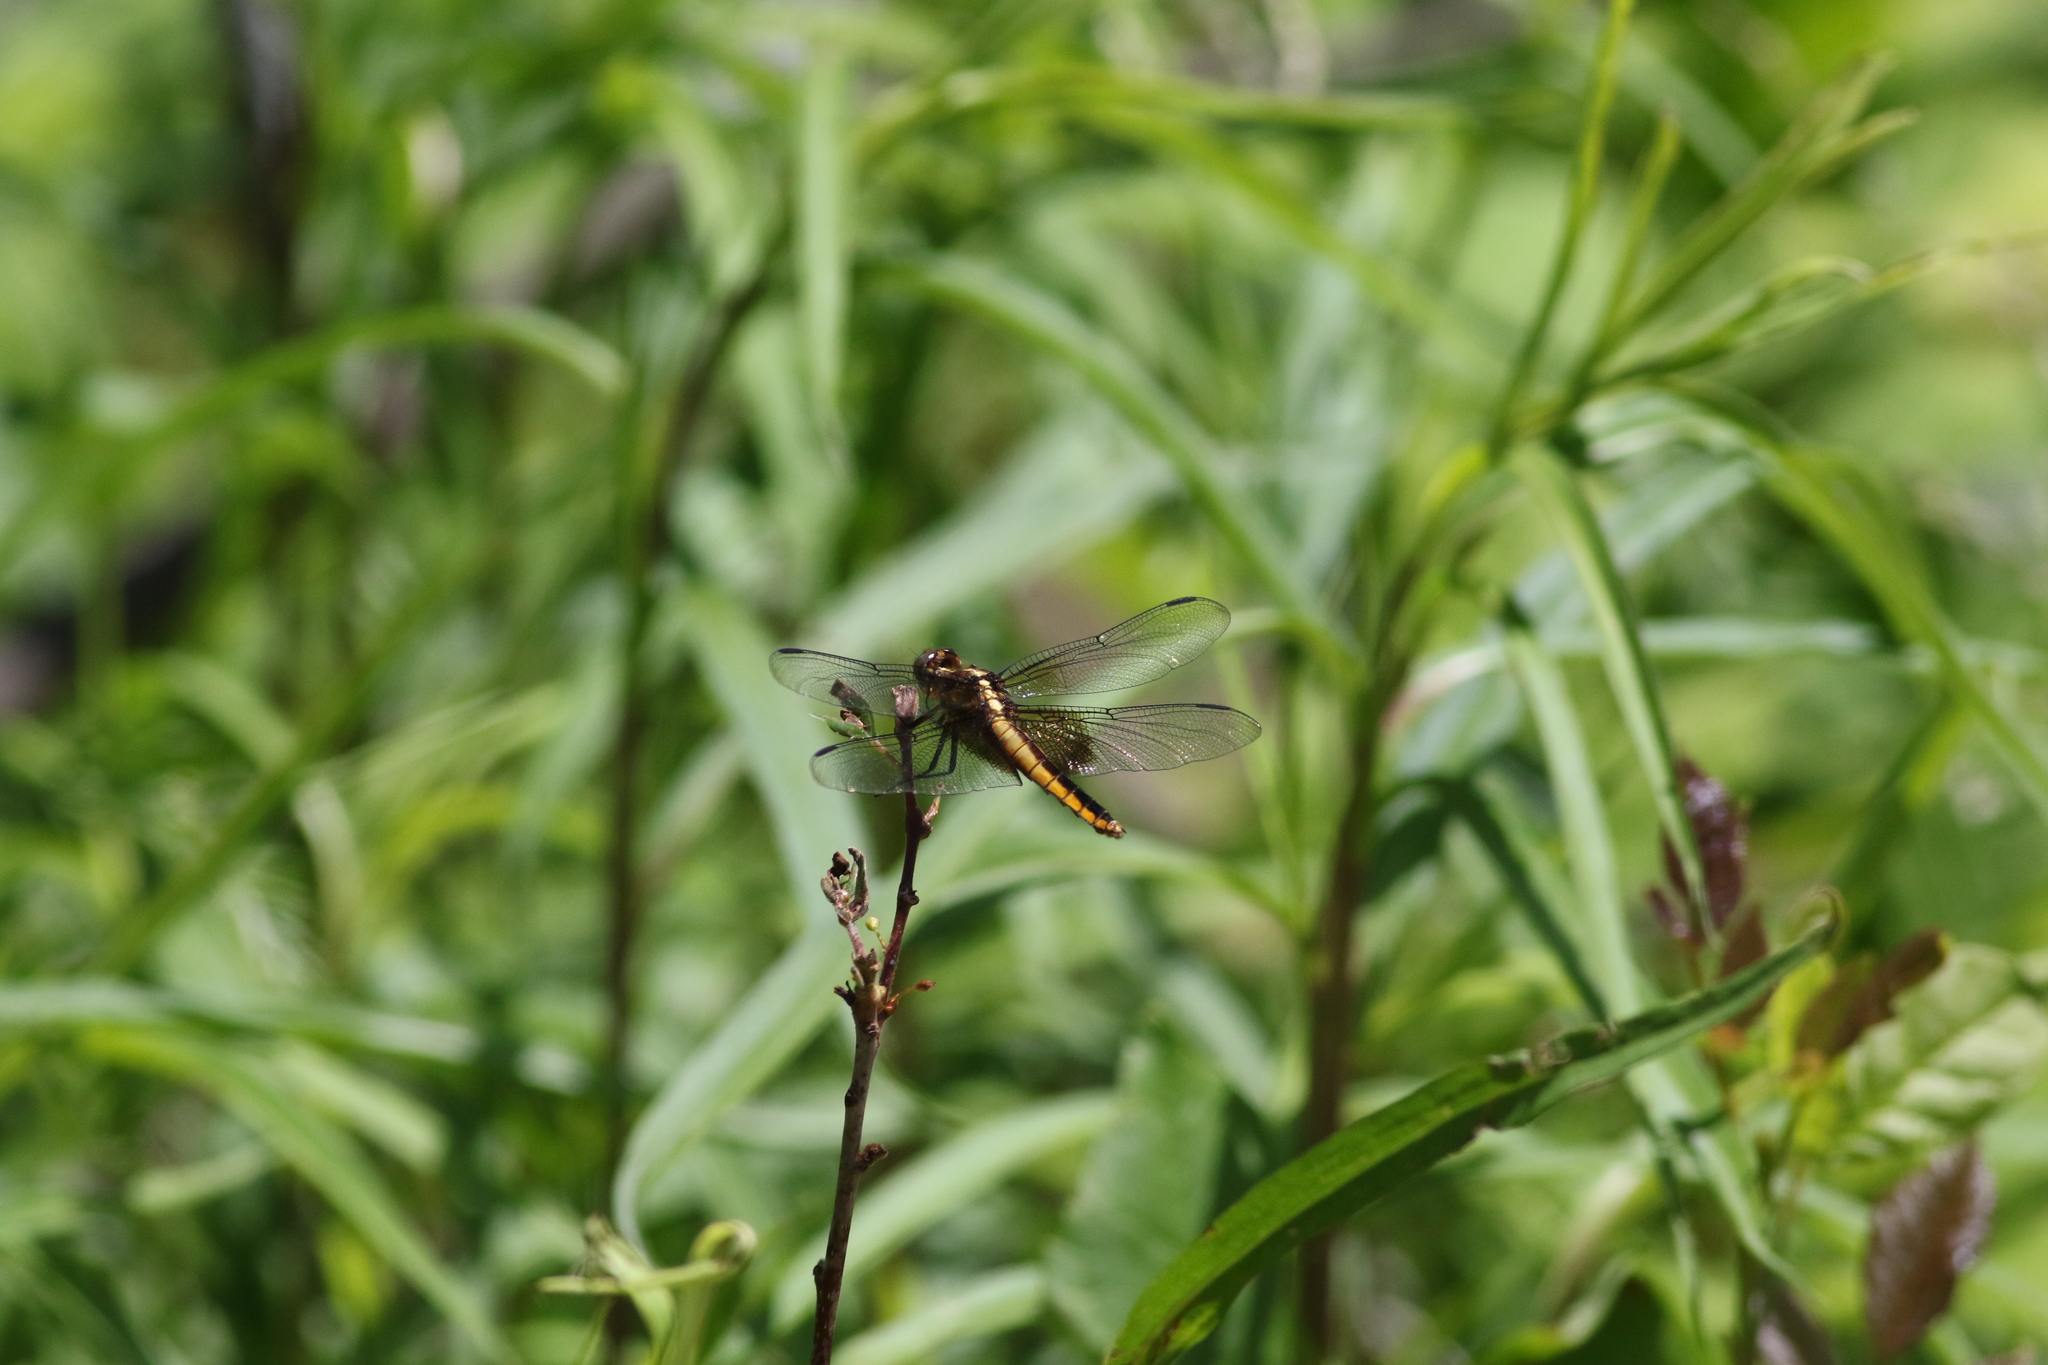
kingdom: Animalia
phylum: Arthropoda
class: Insecta
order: Odonata
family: Libellulidae
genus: Libellula
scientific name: Libellula luctuosa
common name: Widow skimmer
